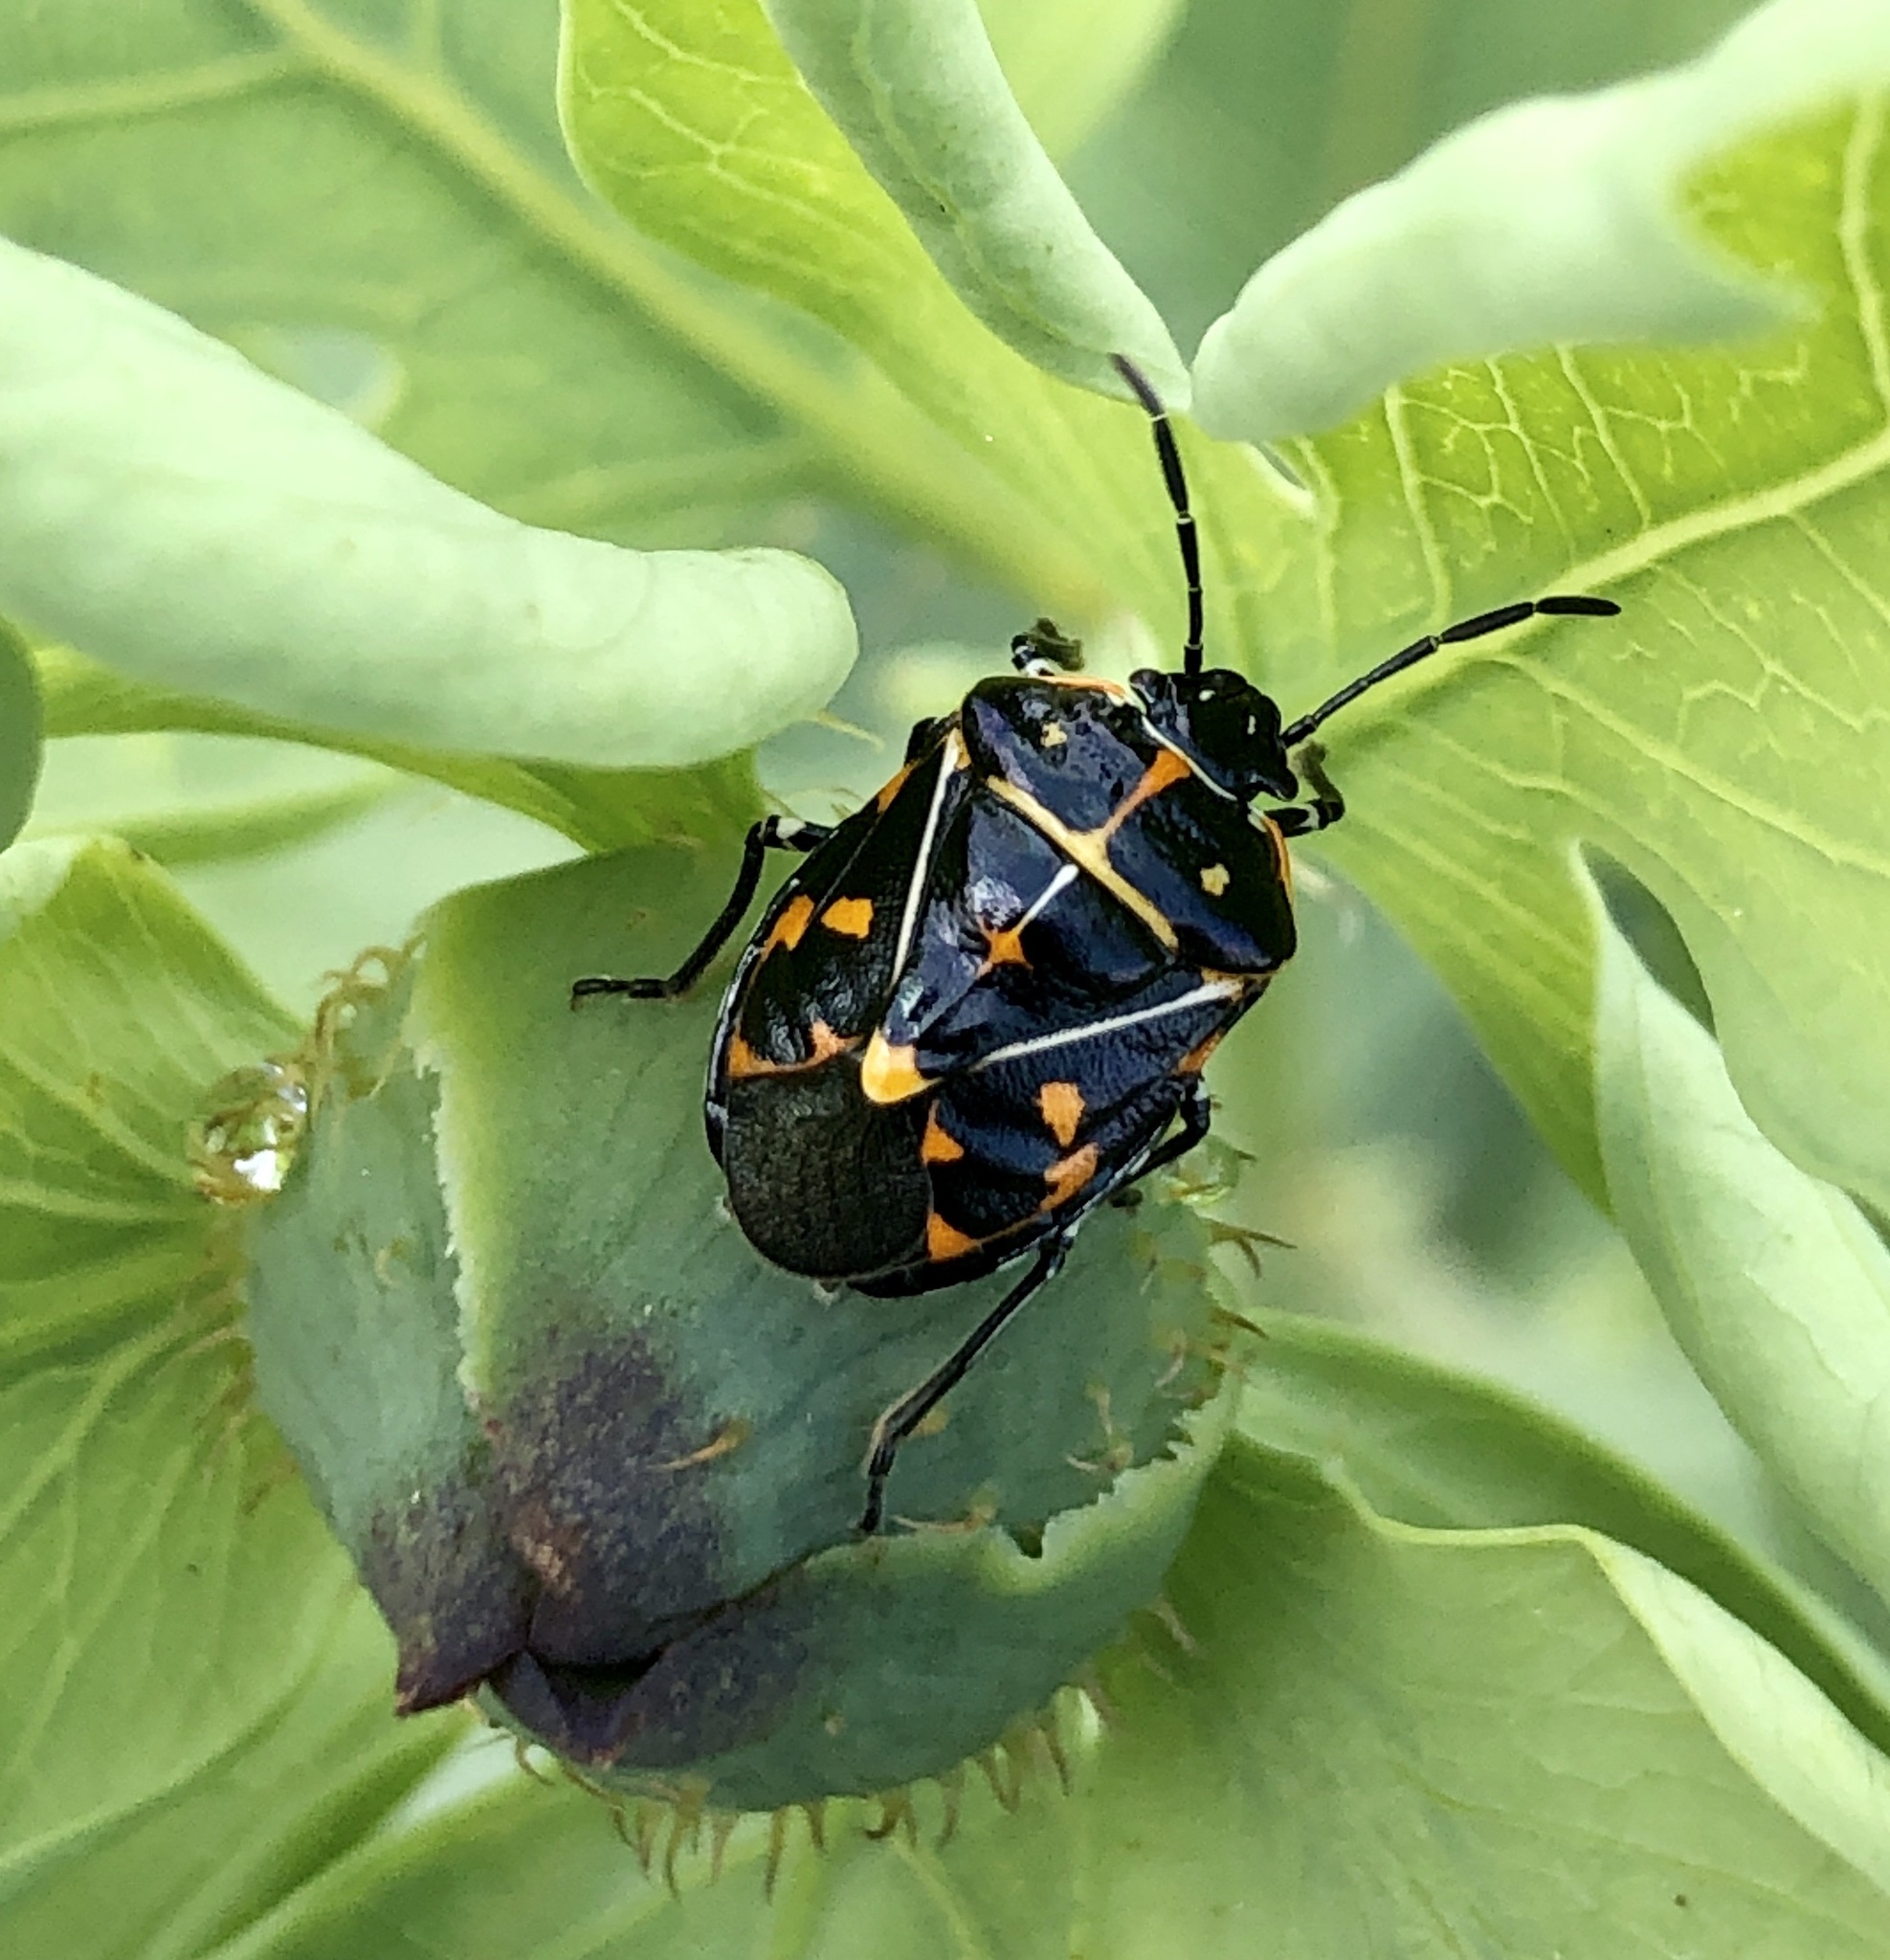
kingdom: Animalia
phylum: Arthropoda
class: Insecta
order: Hemiptera
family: Pentatomidae
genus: Murgantia
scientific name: Murgantia histrionica
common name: Harlequin bug
